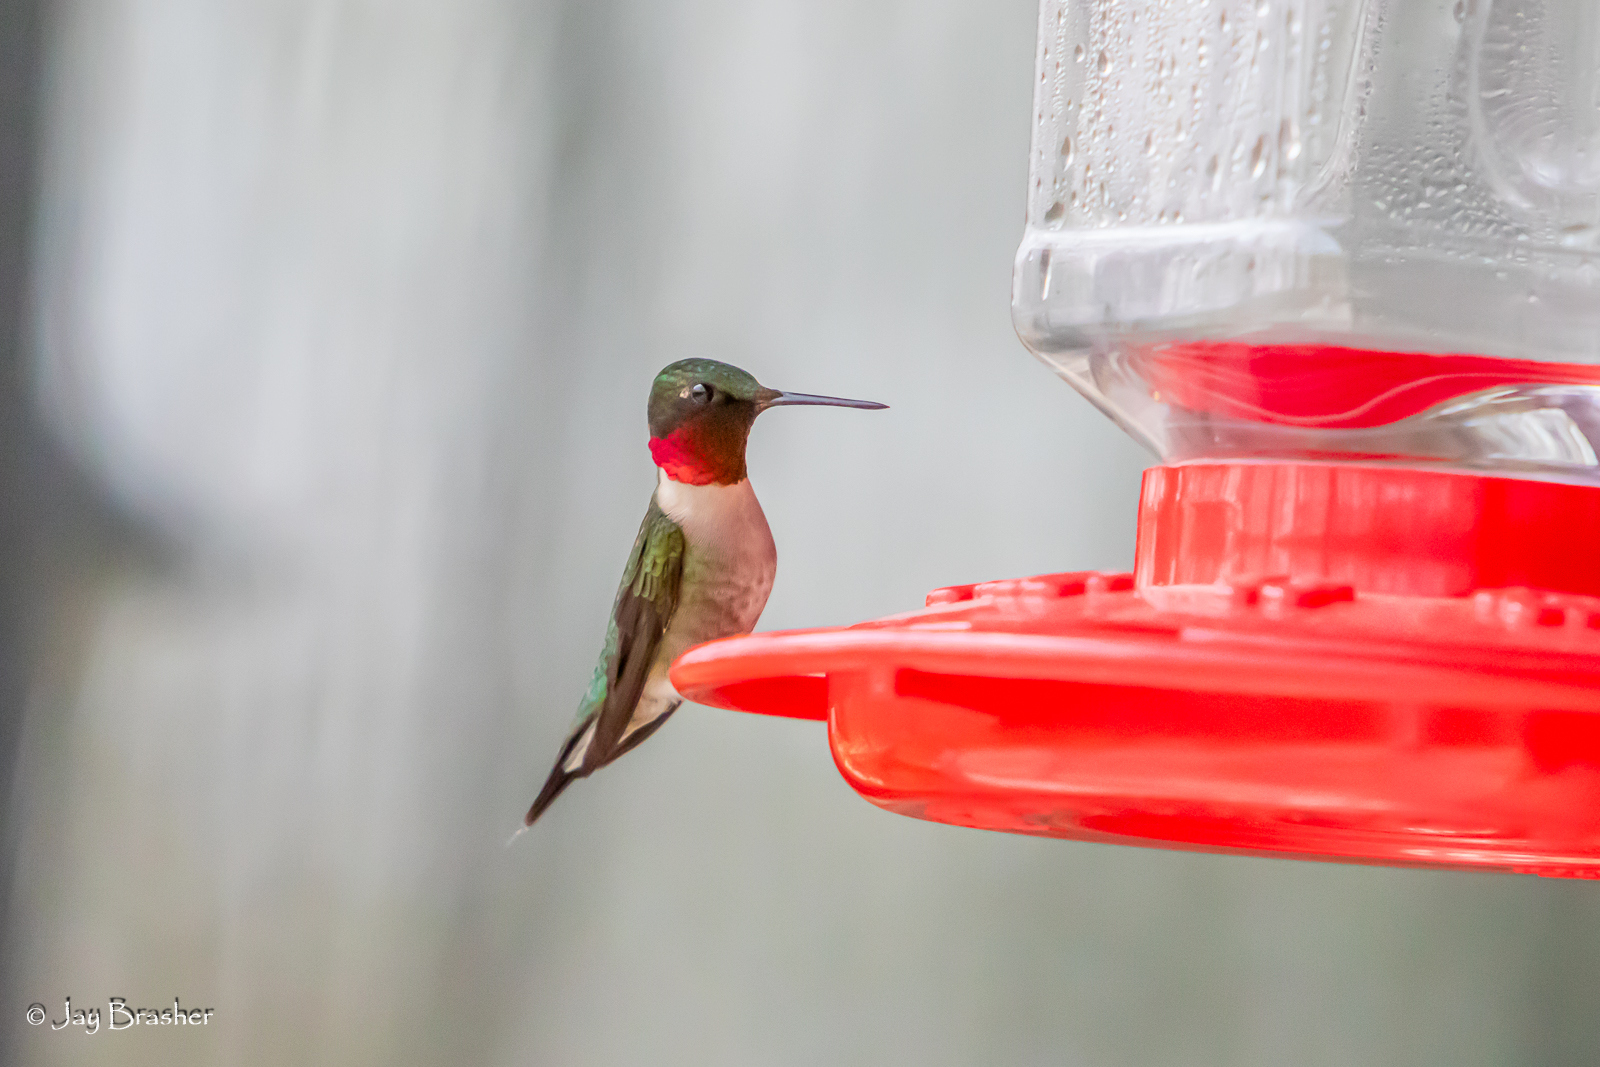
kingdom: Animalia
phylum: Chordata
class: Aves
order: Apodiformes
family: Trochilidae
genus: Archilochus
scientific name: Archilochus colubris
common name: Ruby-throated hummingbird
